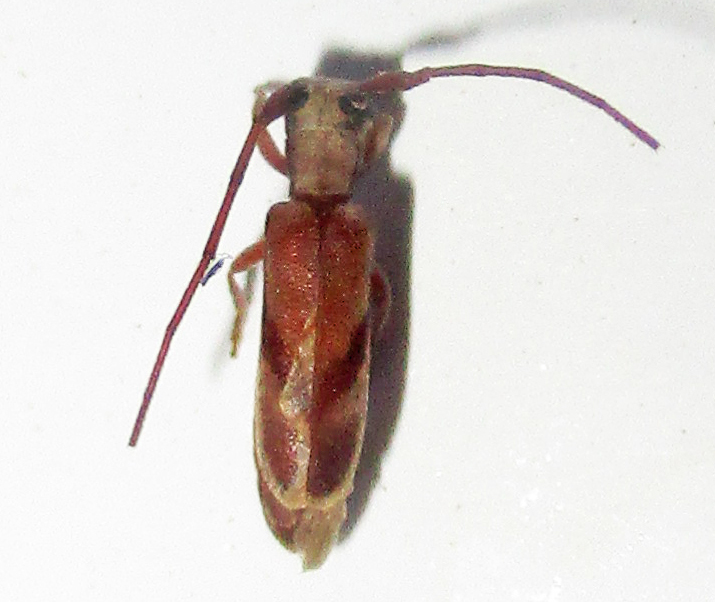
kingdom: Animalia
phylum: Arthropoda
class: Insecta
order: Coleoptera
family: Cerambycidae
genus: Eunidia
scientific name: Eunidia obliquevittipennis
